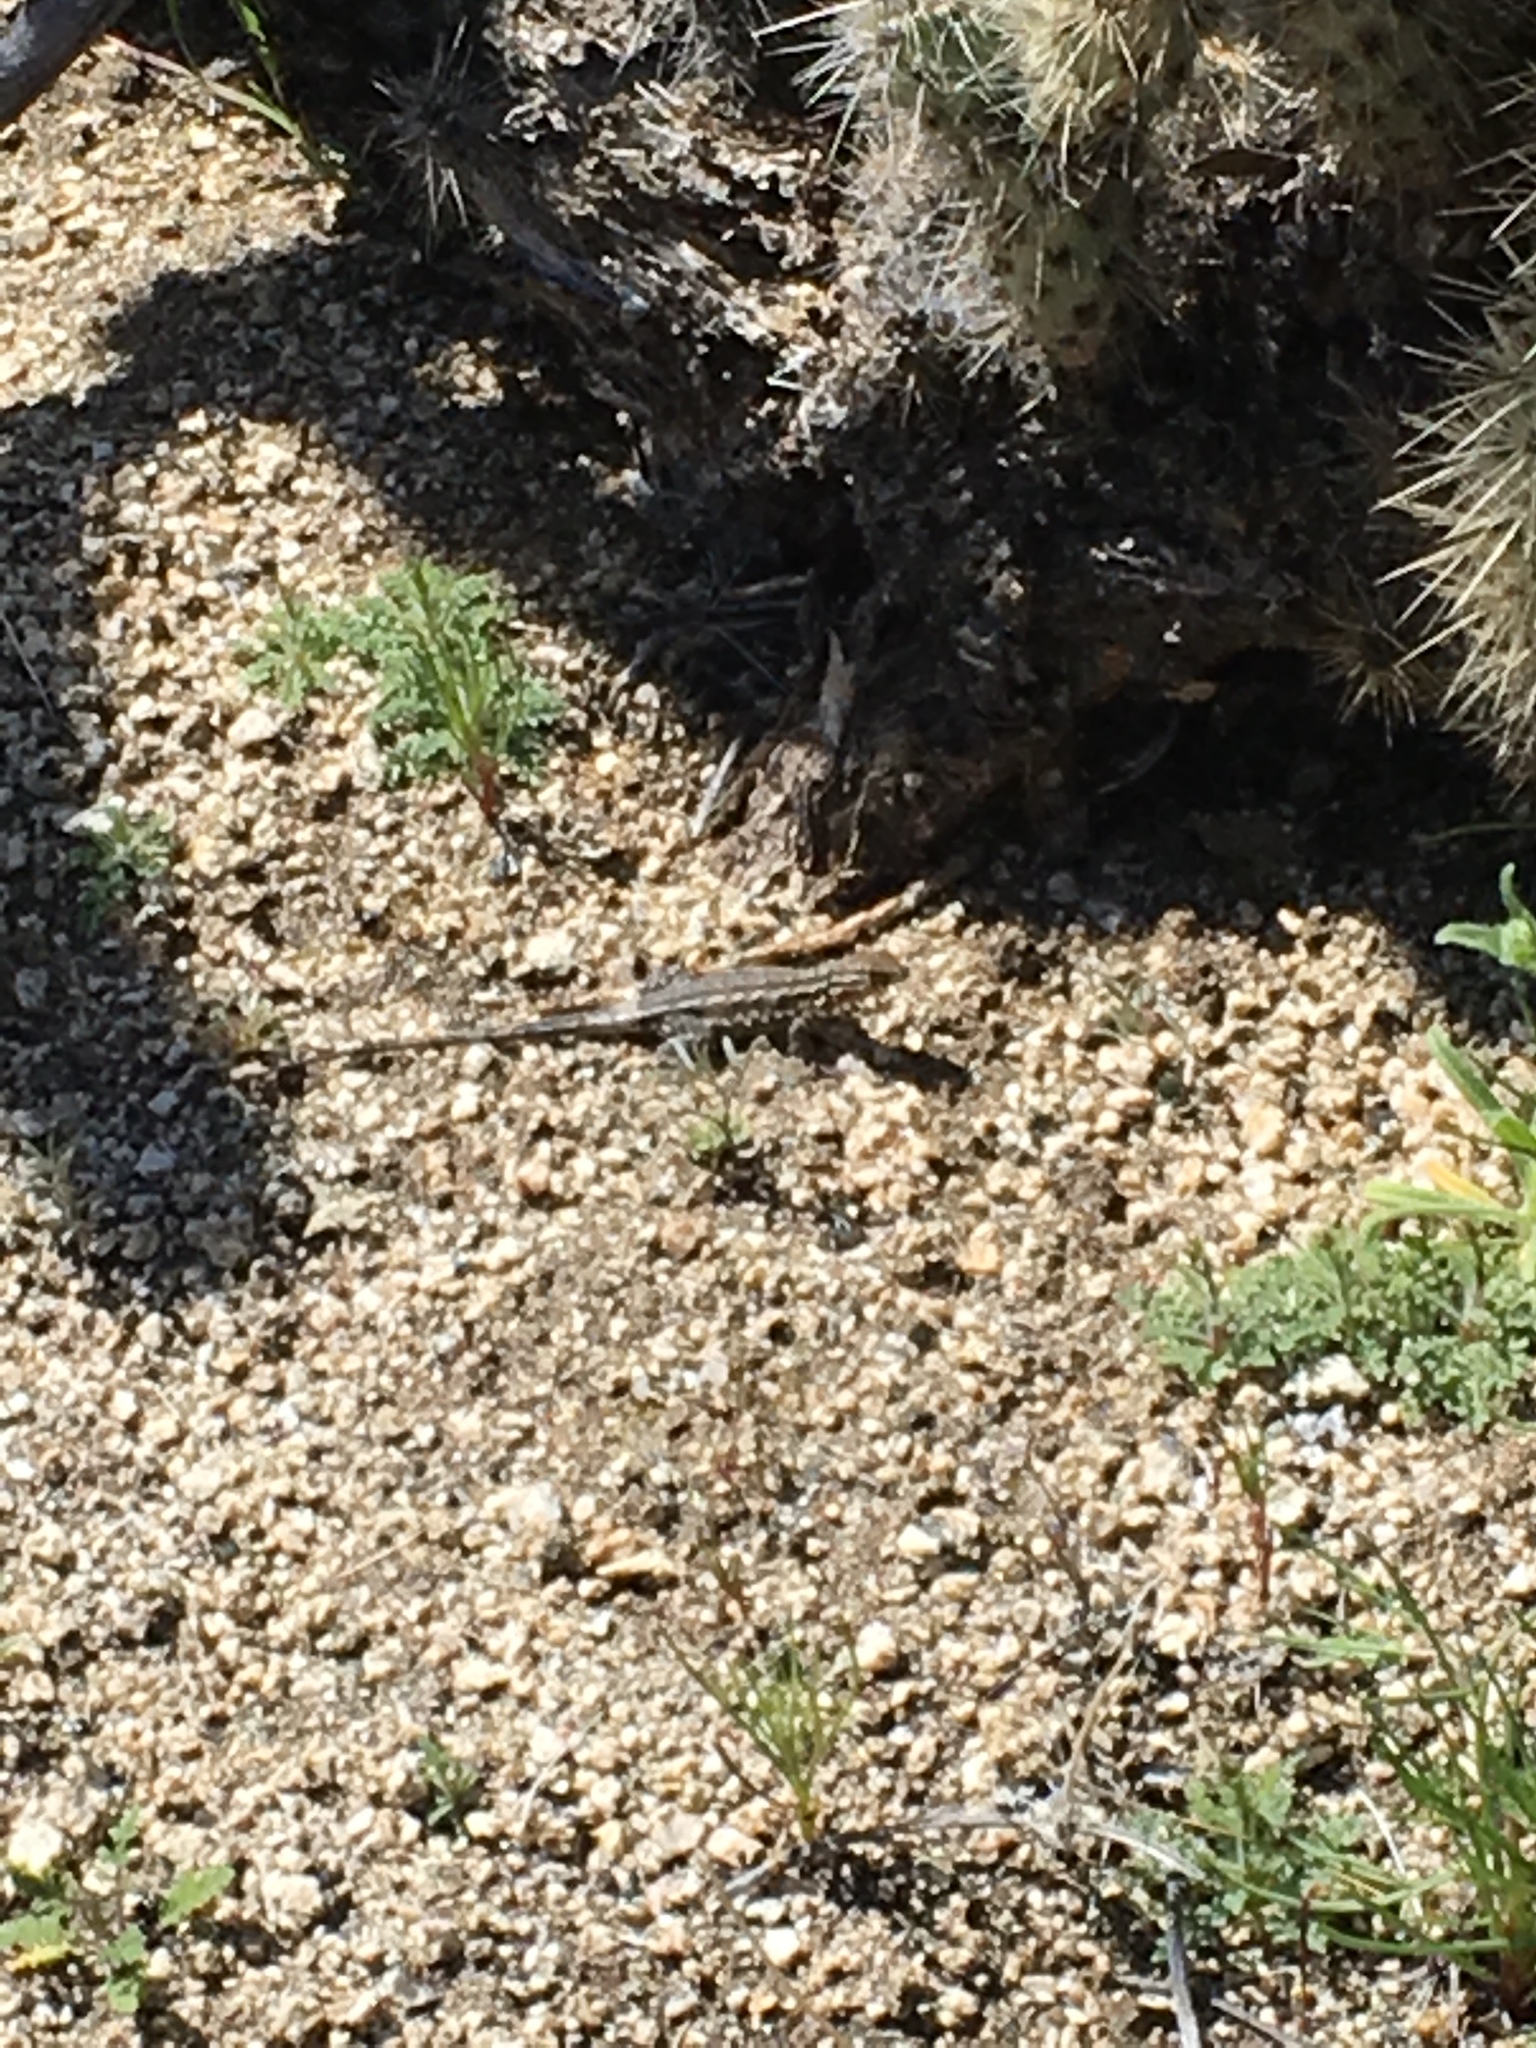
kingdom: Animalia
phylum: Chordata
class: Squamata
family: Phrynosomatidae
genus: Uta
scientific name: Uta stansburiana
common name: Side-blotched lizard
